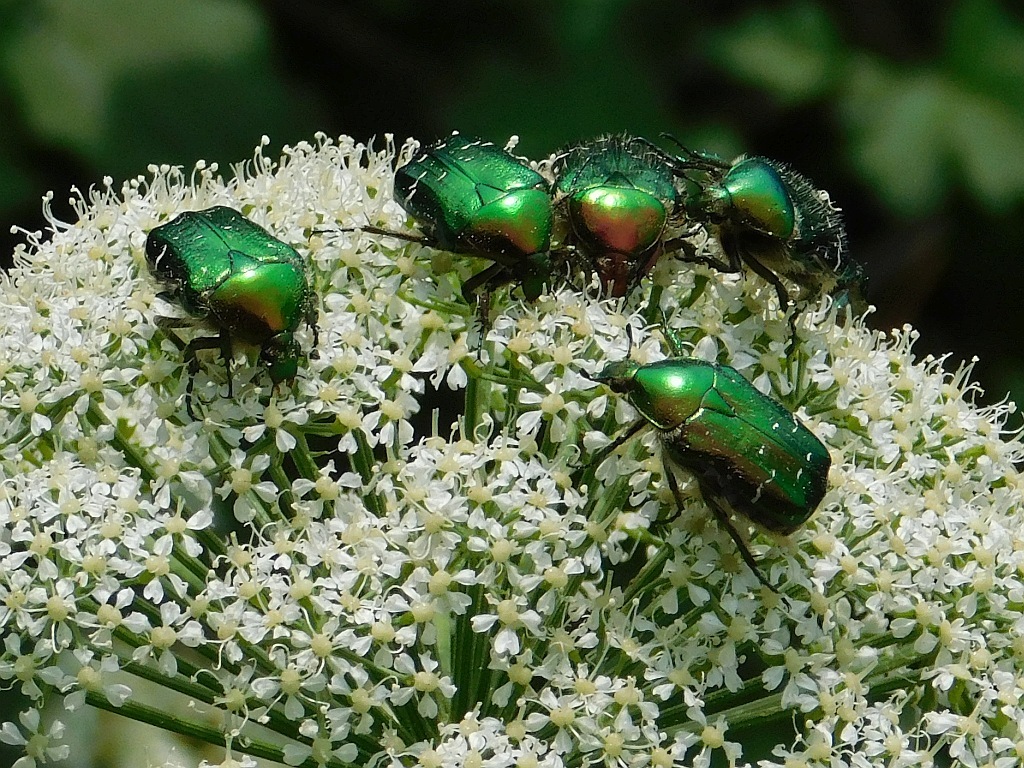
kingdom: Animalia
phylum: Arthropoda
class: Insecta
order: Coleoptera
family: Scarabaeidae
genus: Cetonia
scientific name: Cetonia aurata
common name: Rose chafer
